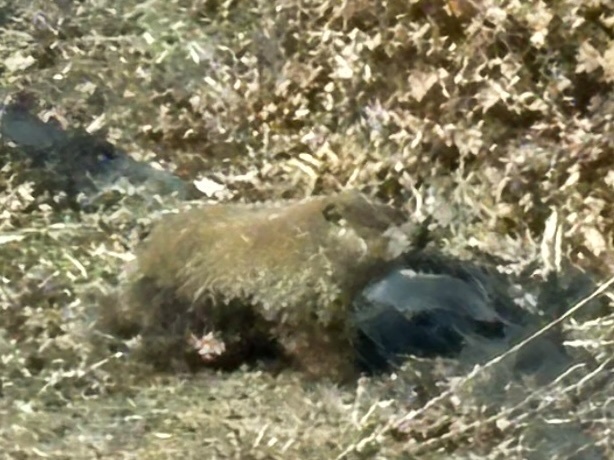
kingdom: Animalia
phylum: Chordata
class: Mammalia
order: Rodentia
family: Sciuridae
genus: Marmota
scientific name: Marmota monax
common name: Groundhog
